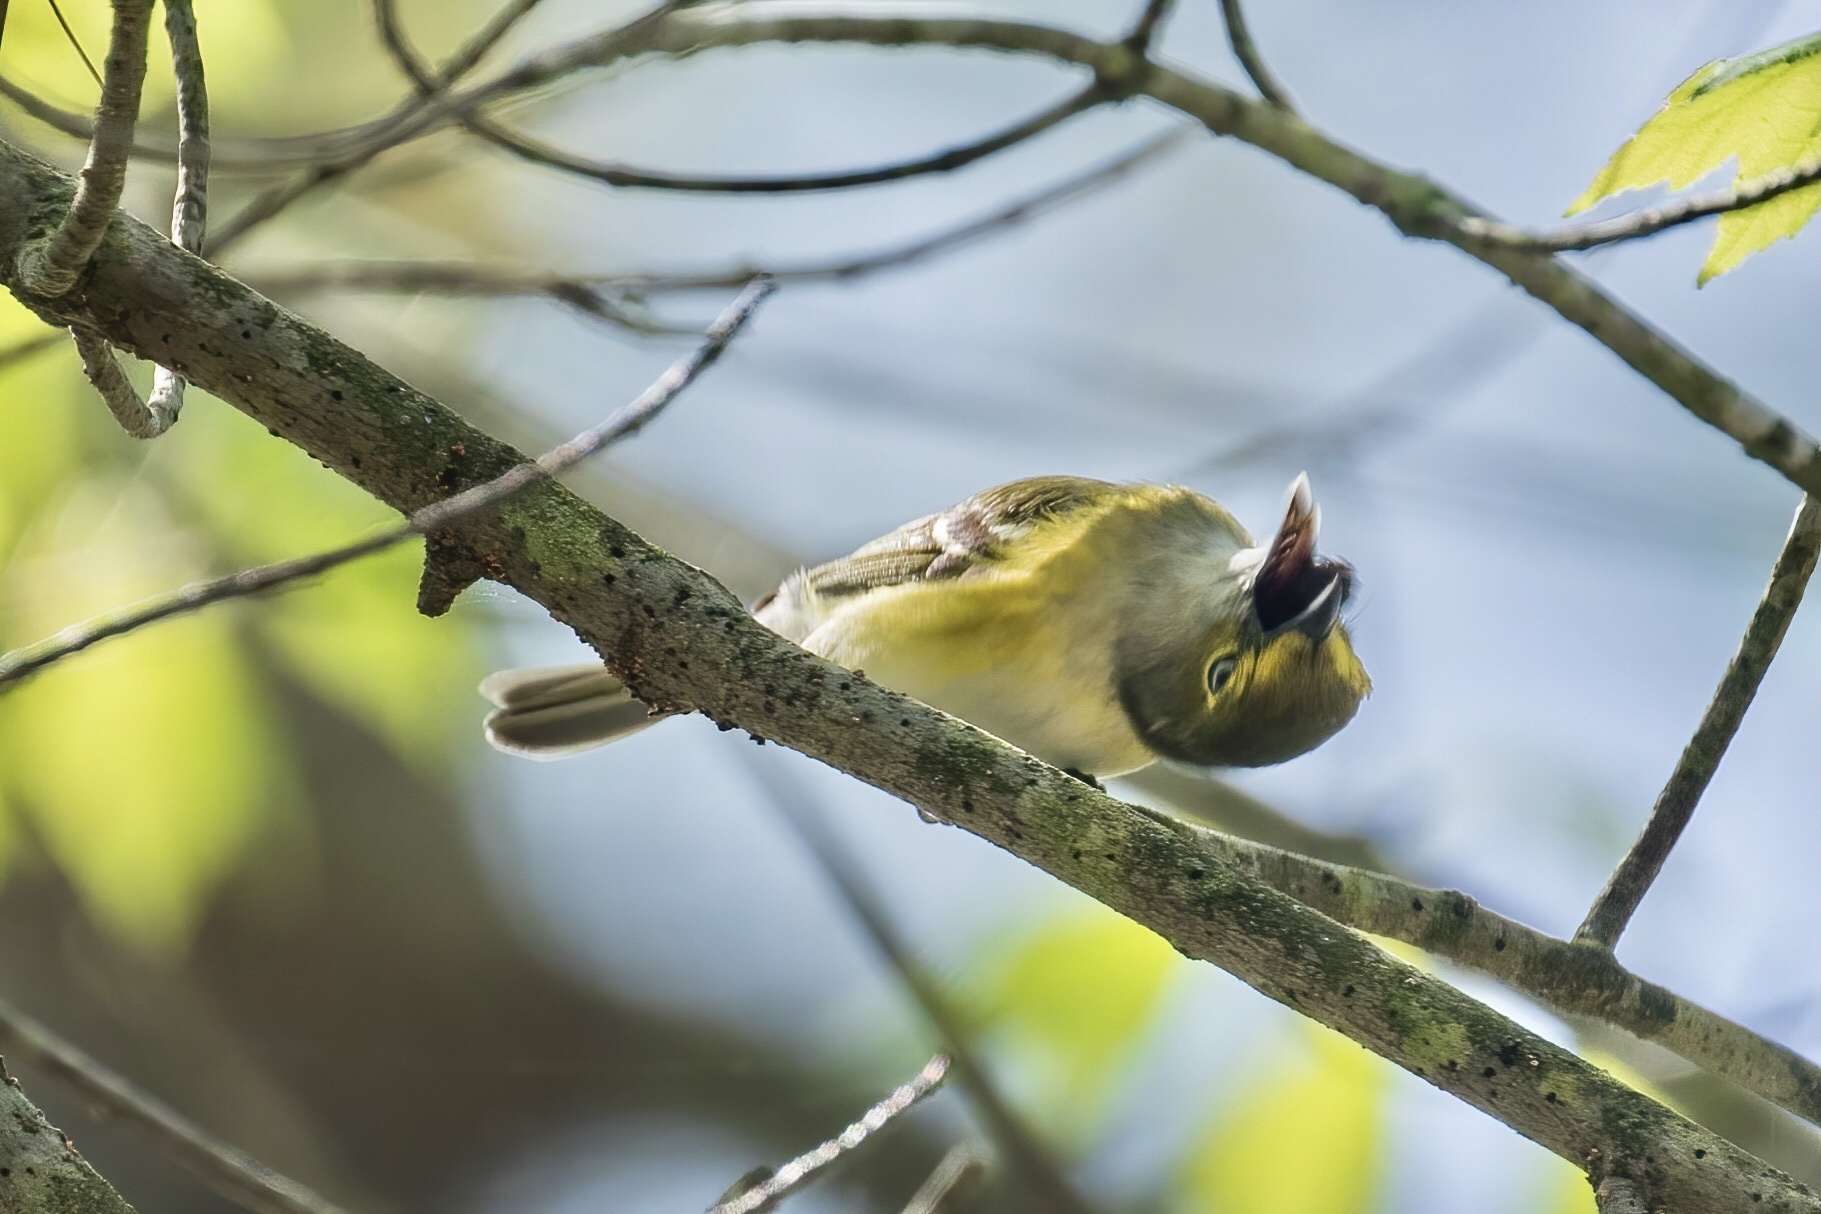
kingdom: Animalia
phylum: Chordata
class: Aves
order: Passeriformes
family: Vireonidae
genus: Vireo
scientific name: Vireo griseus
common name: White-eyed vireo
